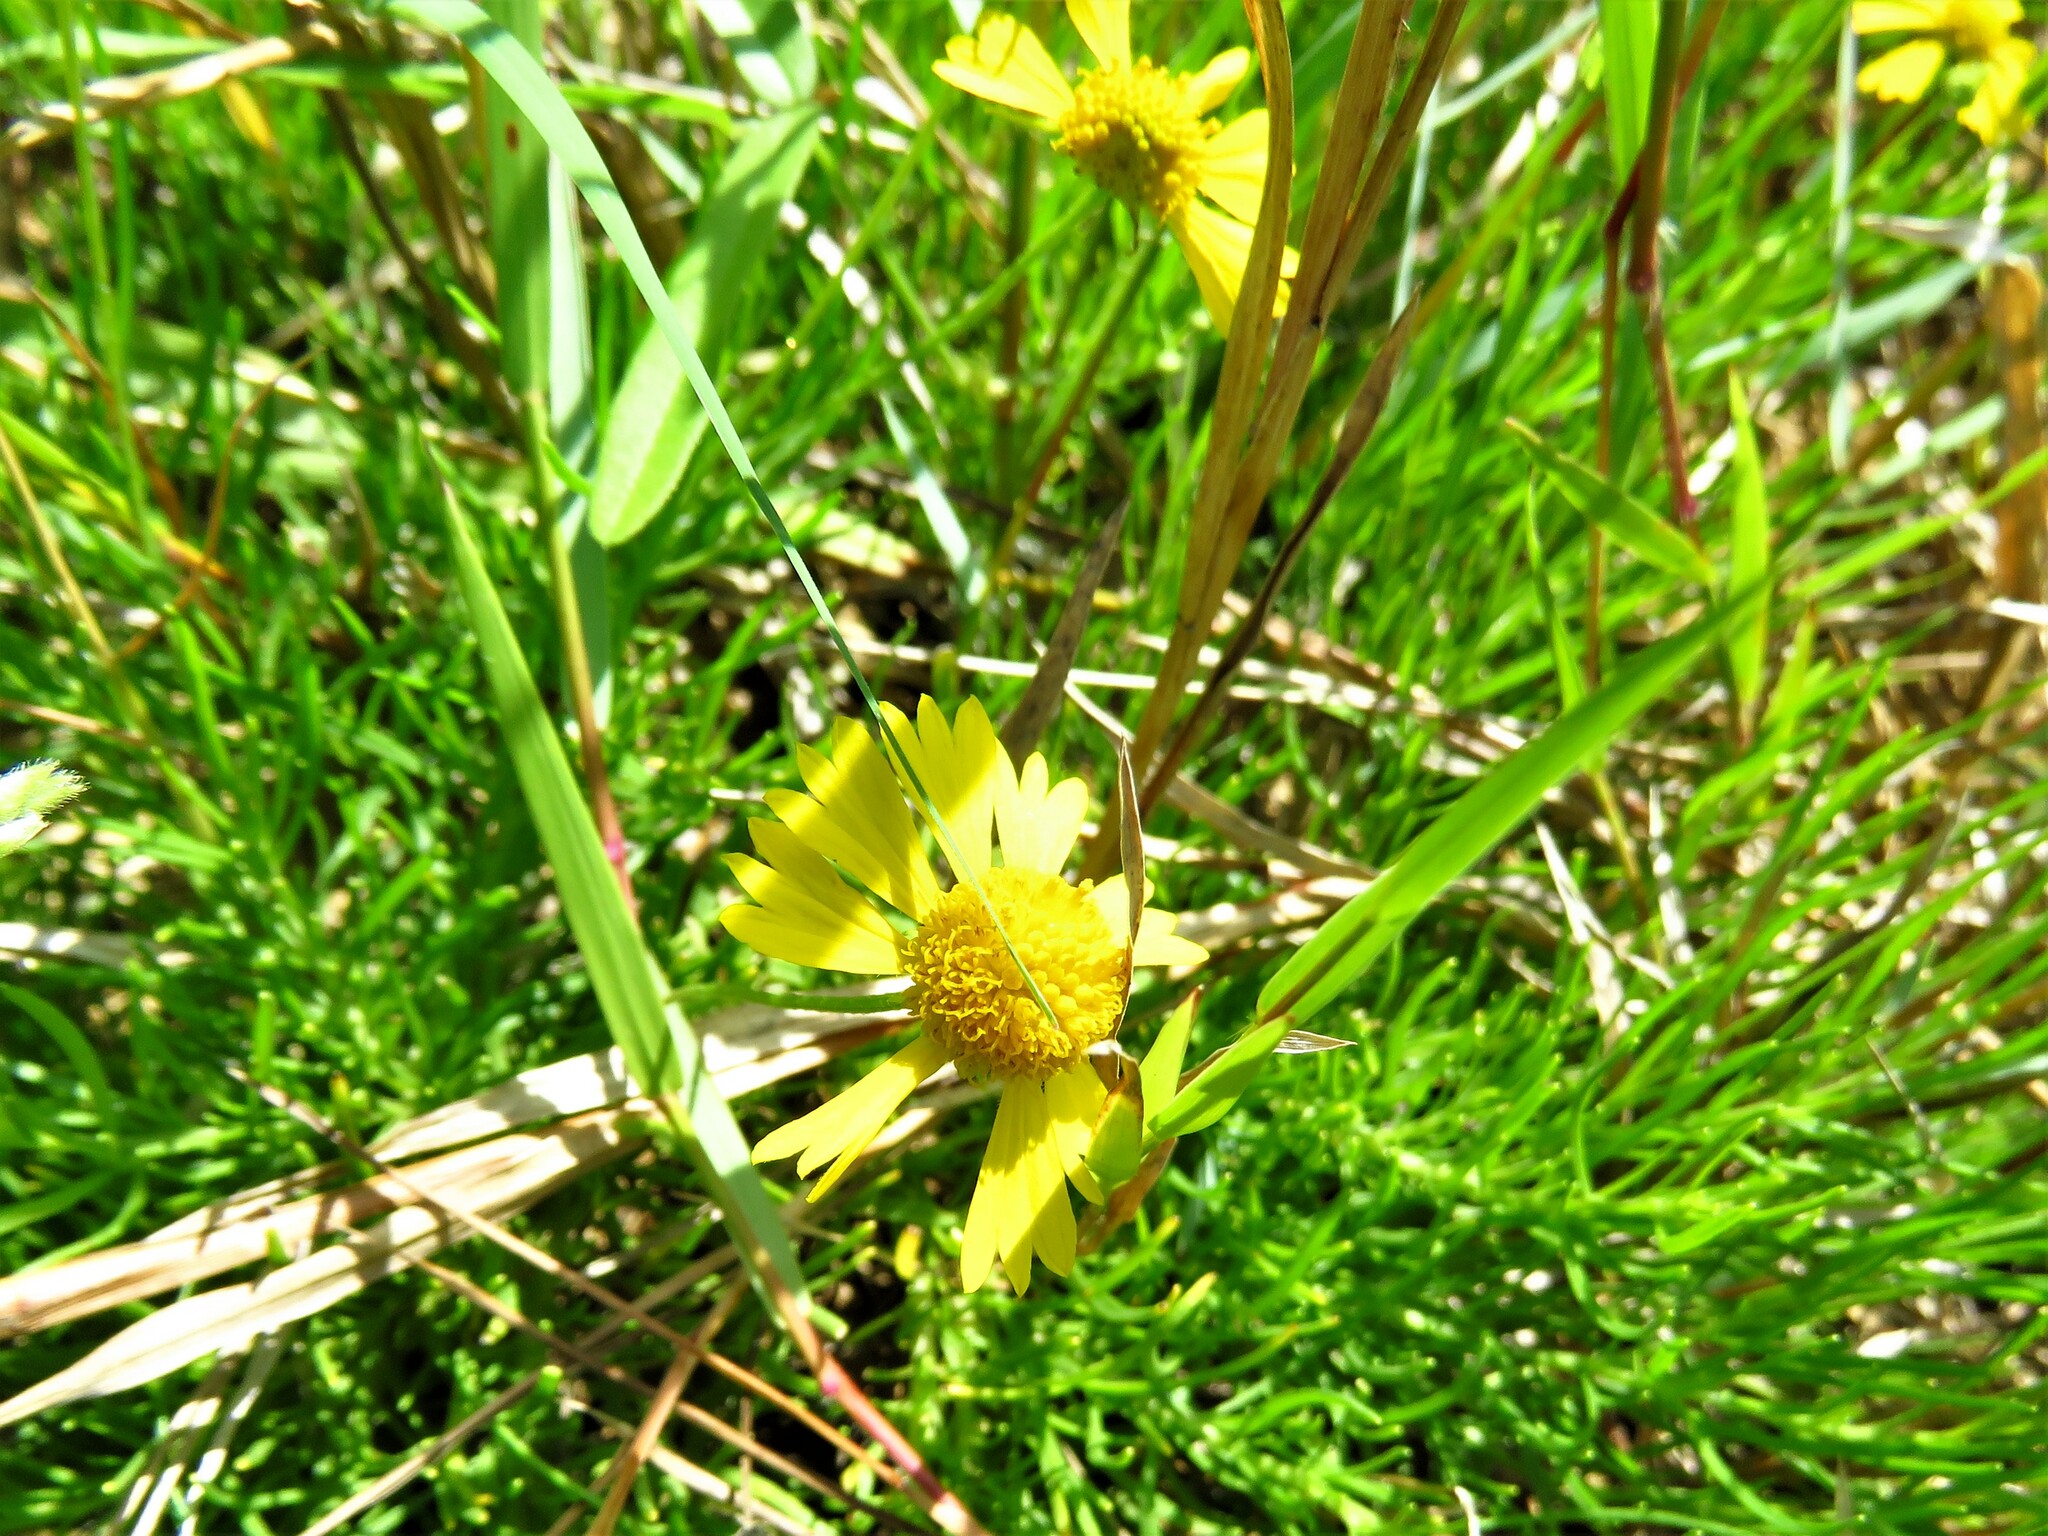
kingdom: Plantae
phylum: Tracheophyta
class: Magnoliopsida
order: Asterales
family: Asteraceae
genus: Helenium
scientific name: Helenium amarum
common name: Bitter sneezeweed
